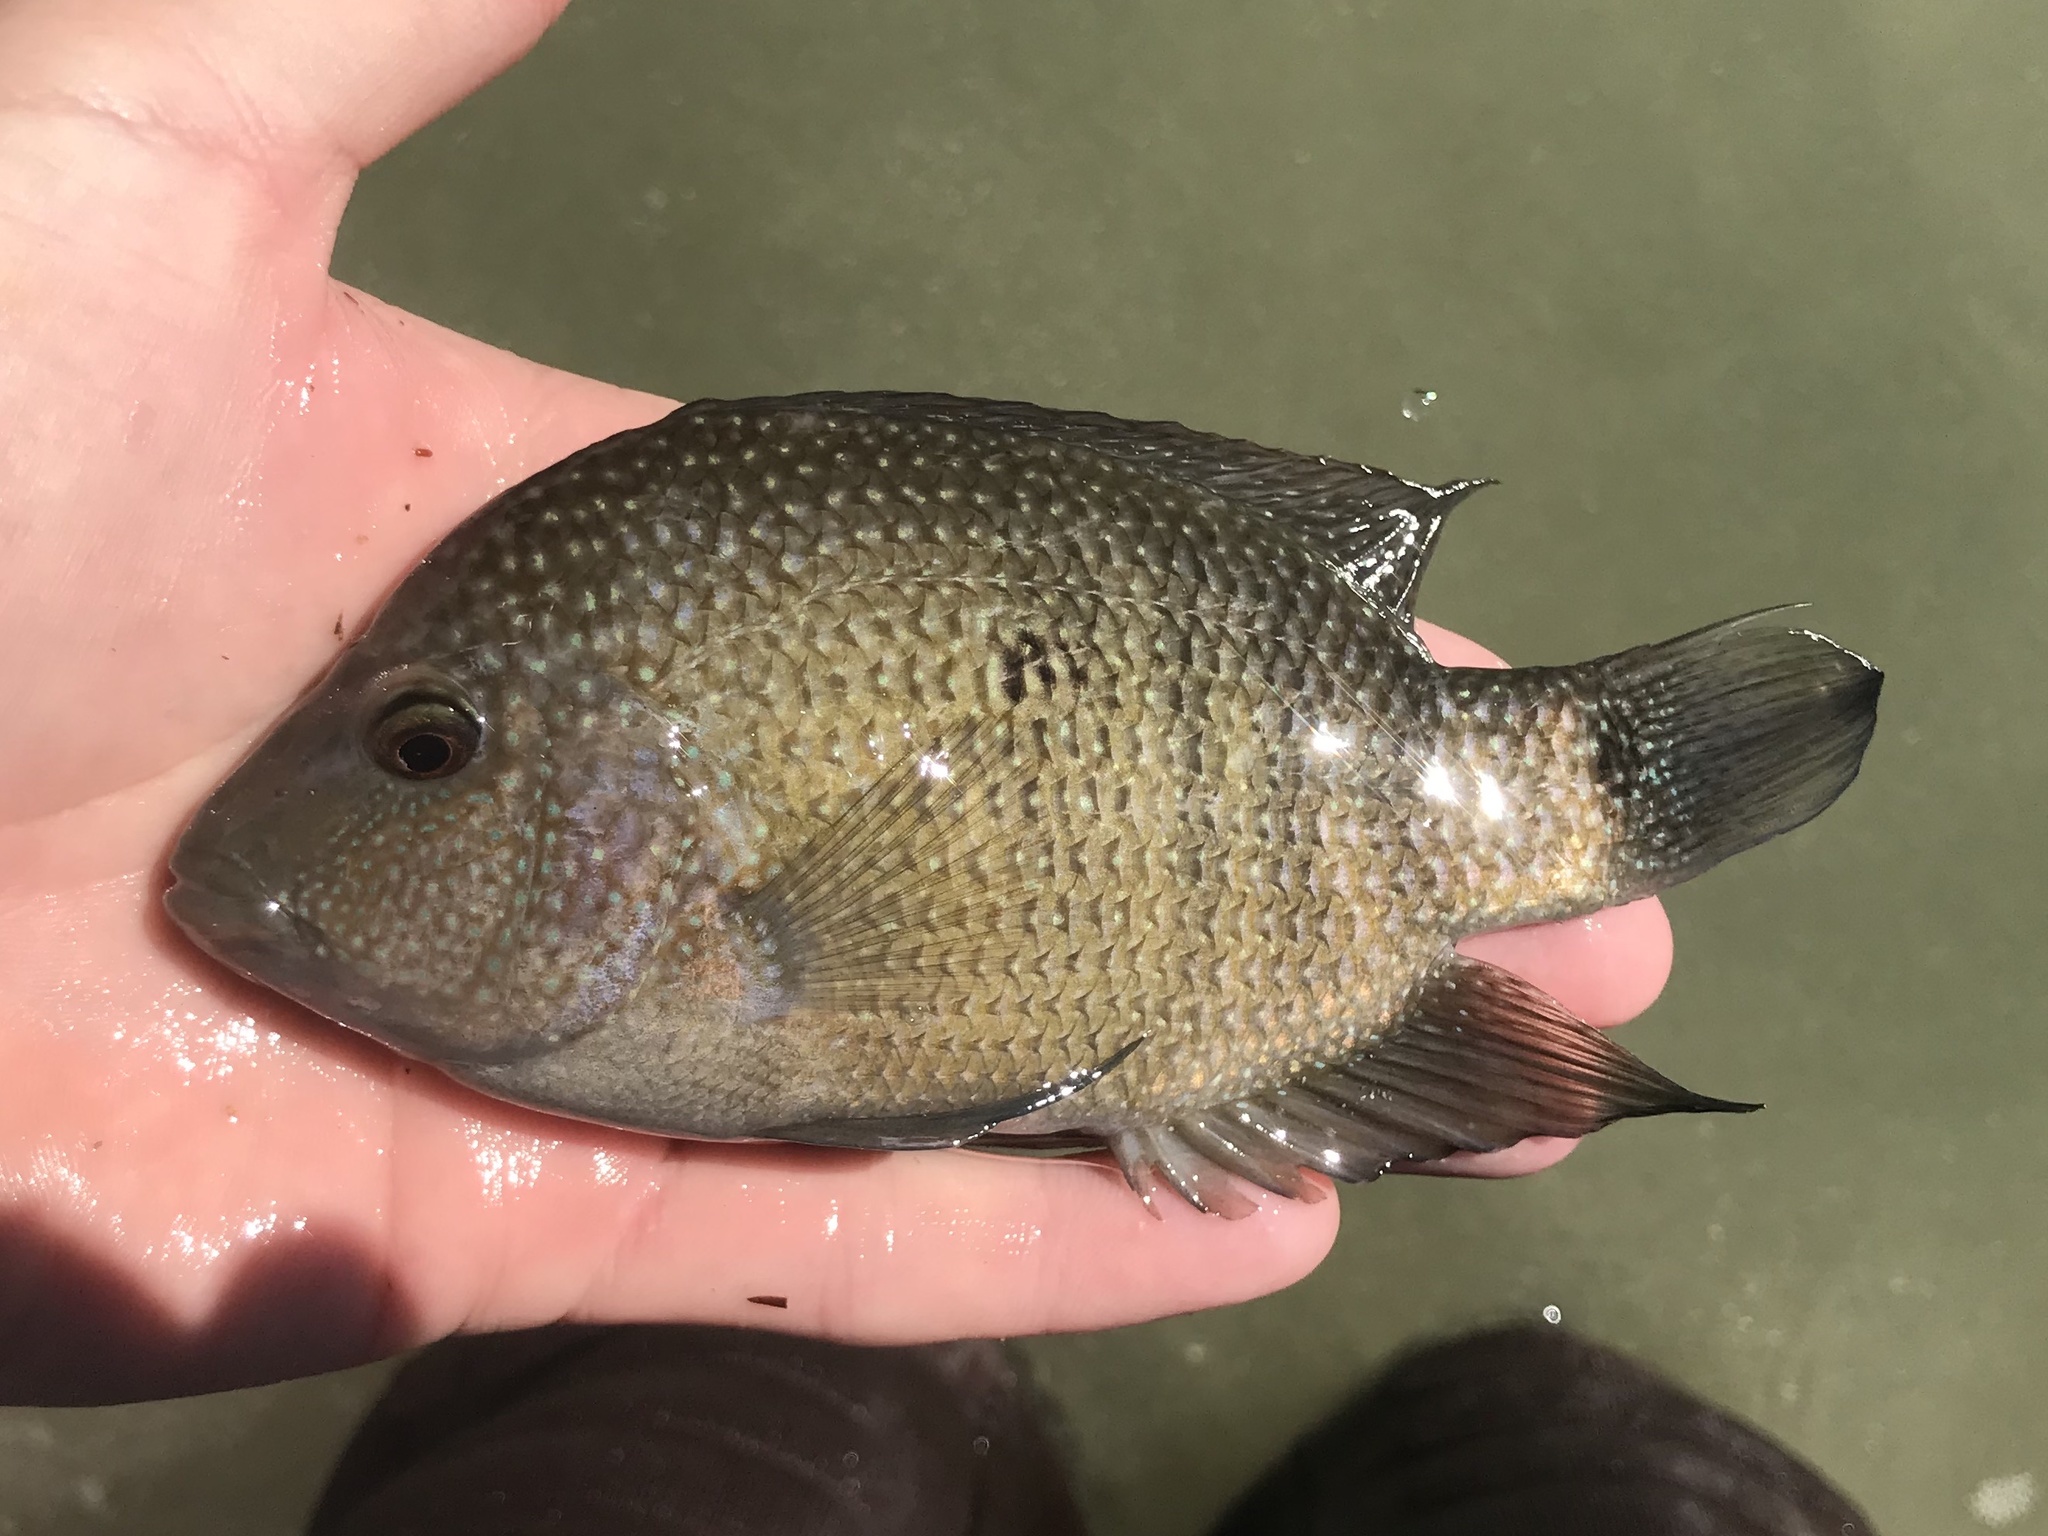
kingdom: Animalia
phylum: Chordata
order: Perciformes
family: Cichlidae
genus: Herichthys
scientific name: Herichthys cyanoguttatus
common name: Rio grande cichlid
